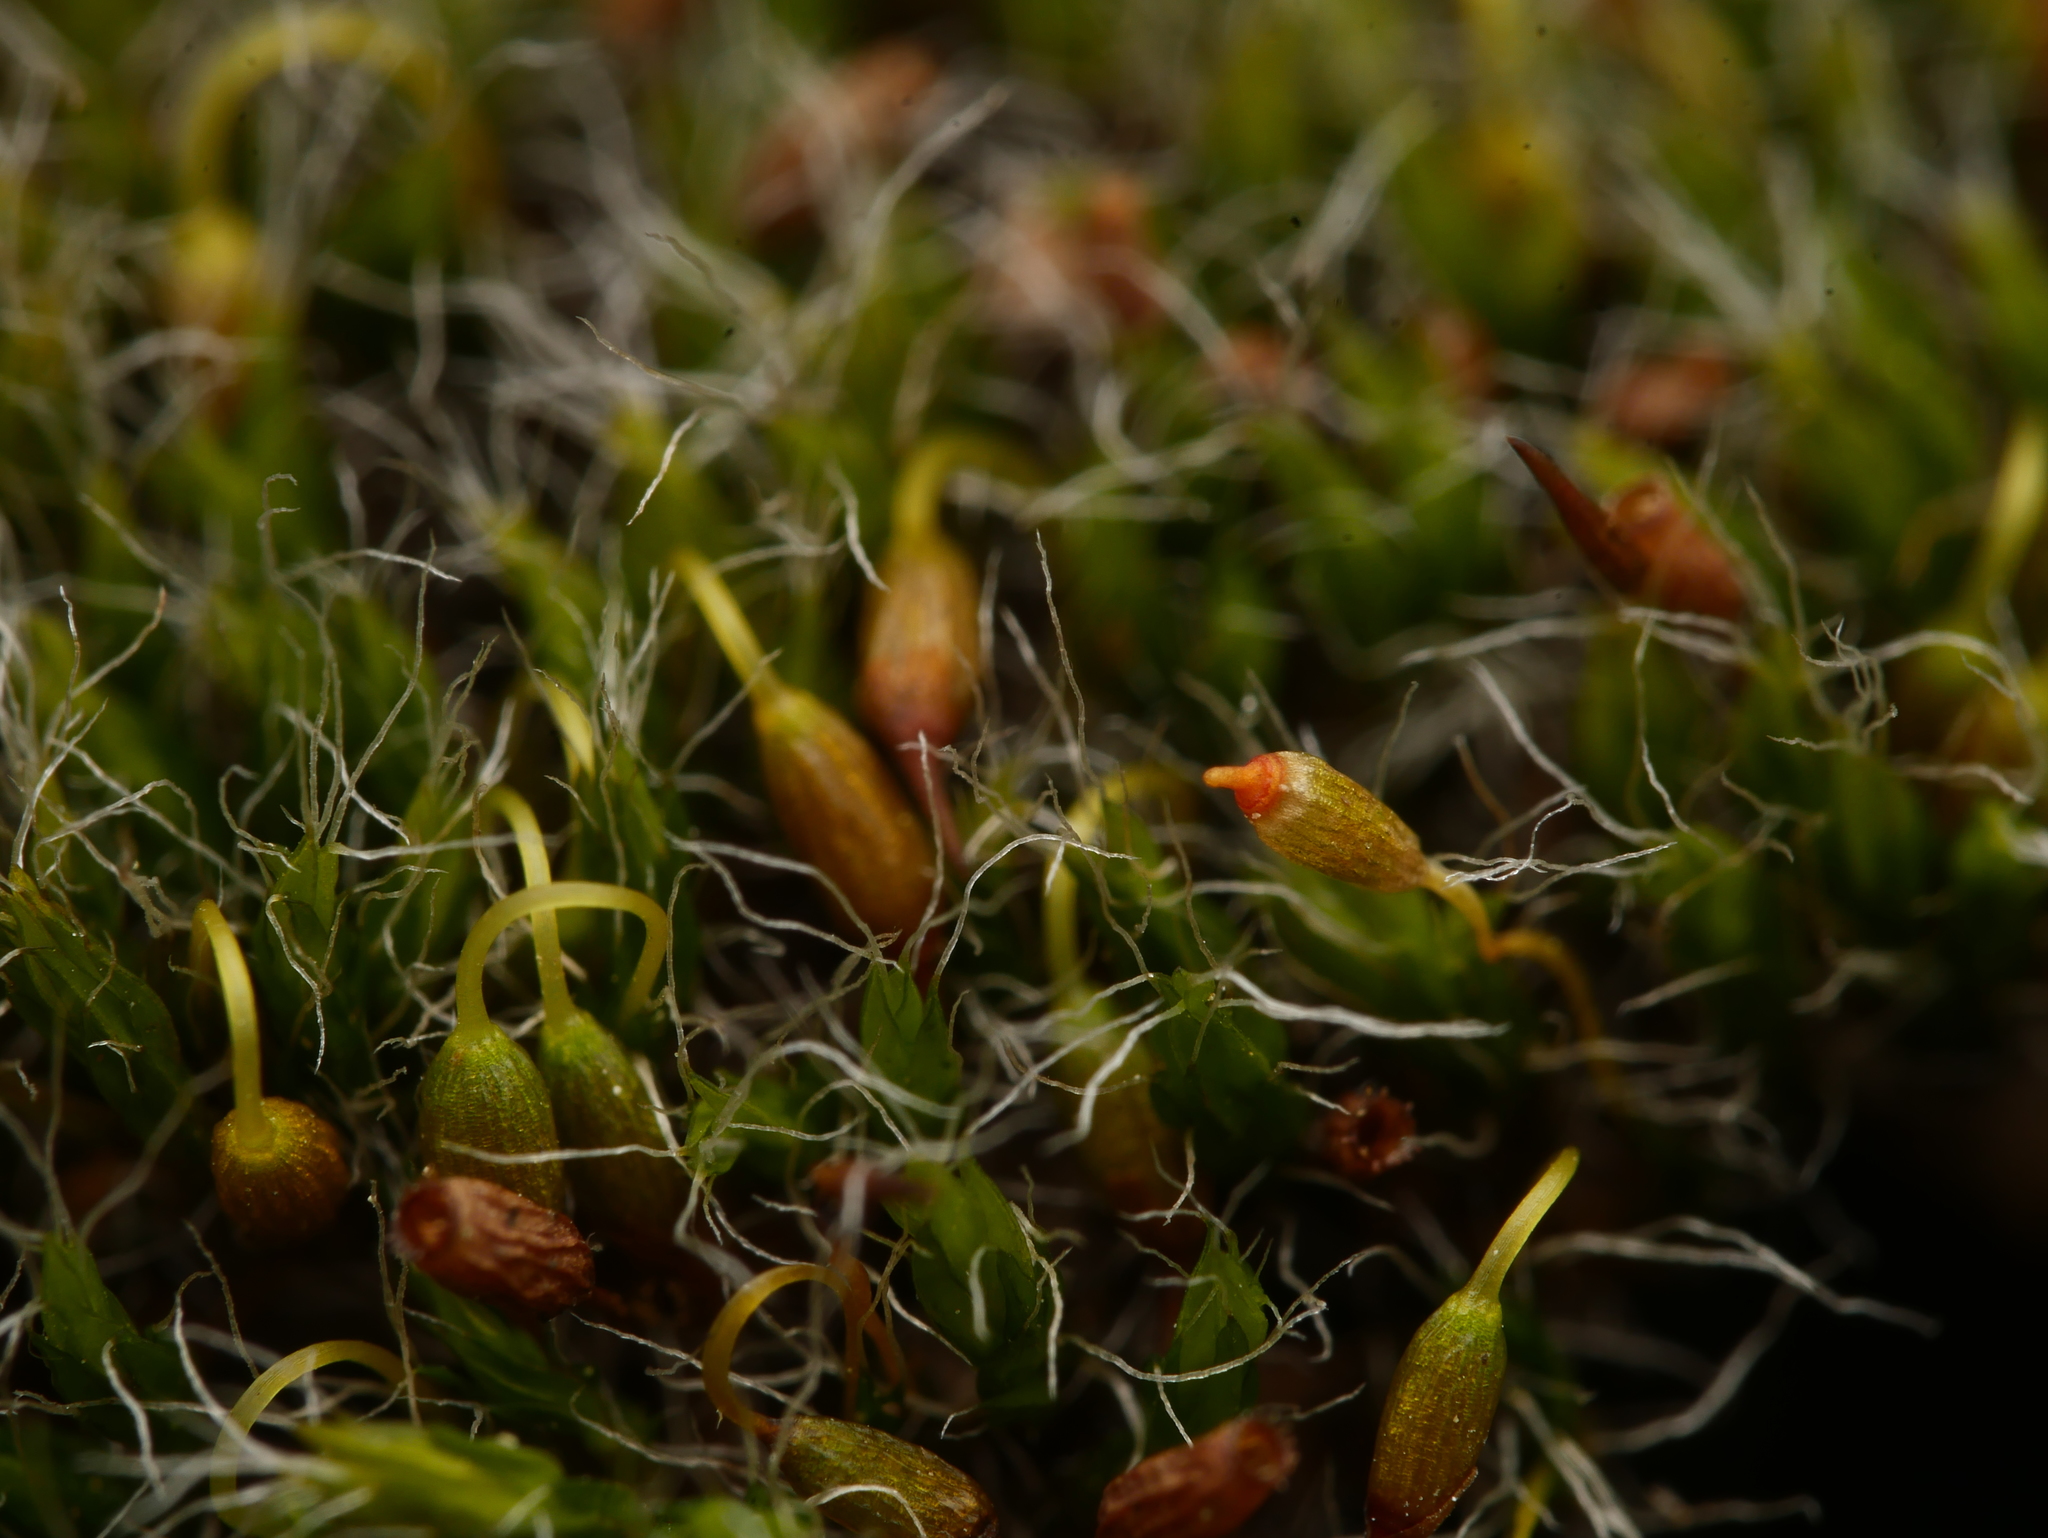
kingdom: Plantae
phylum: Bryophyta
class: Bryopsida
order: Grimmiales
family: Grimmiaceae
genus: Grimmia
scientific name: Grimmia pulvinata
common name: Grey-cushioned grimmia
